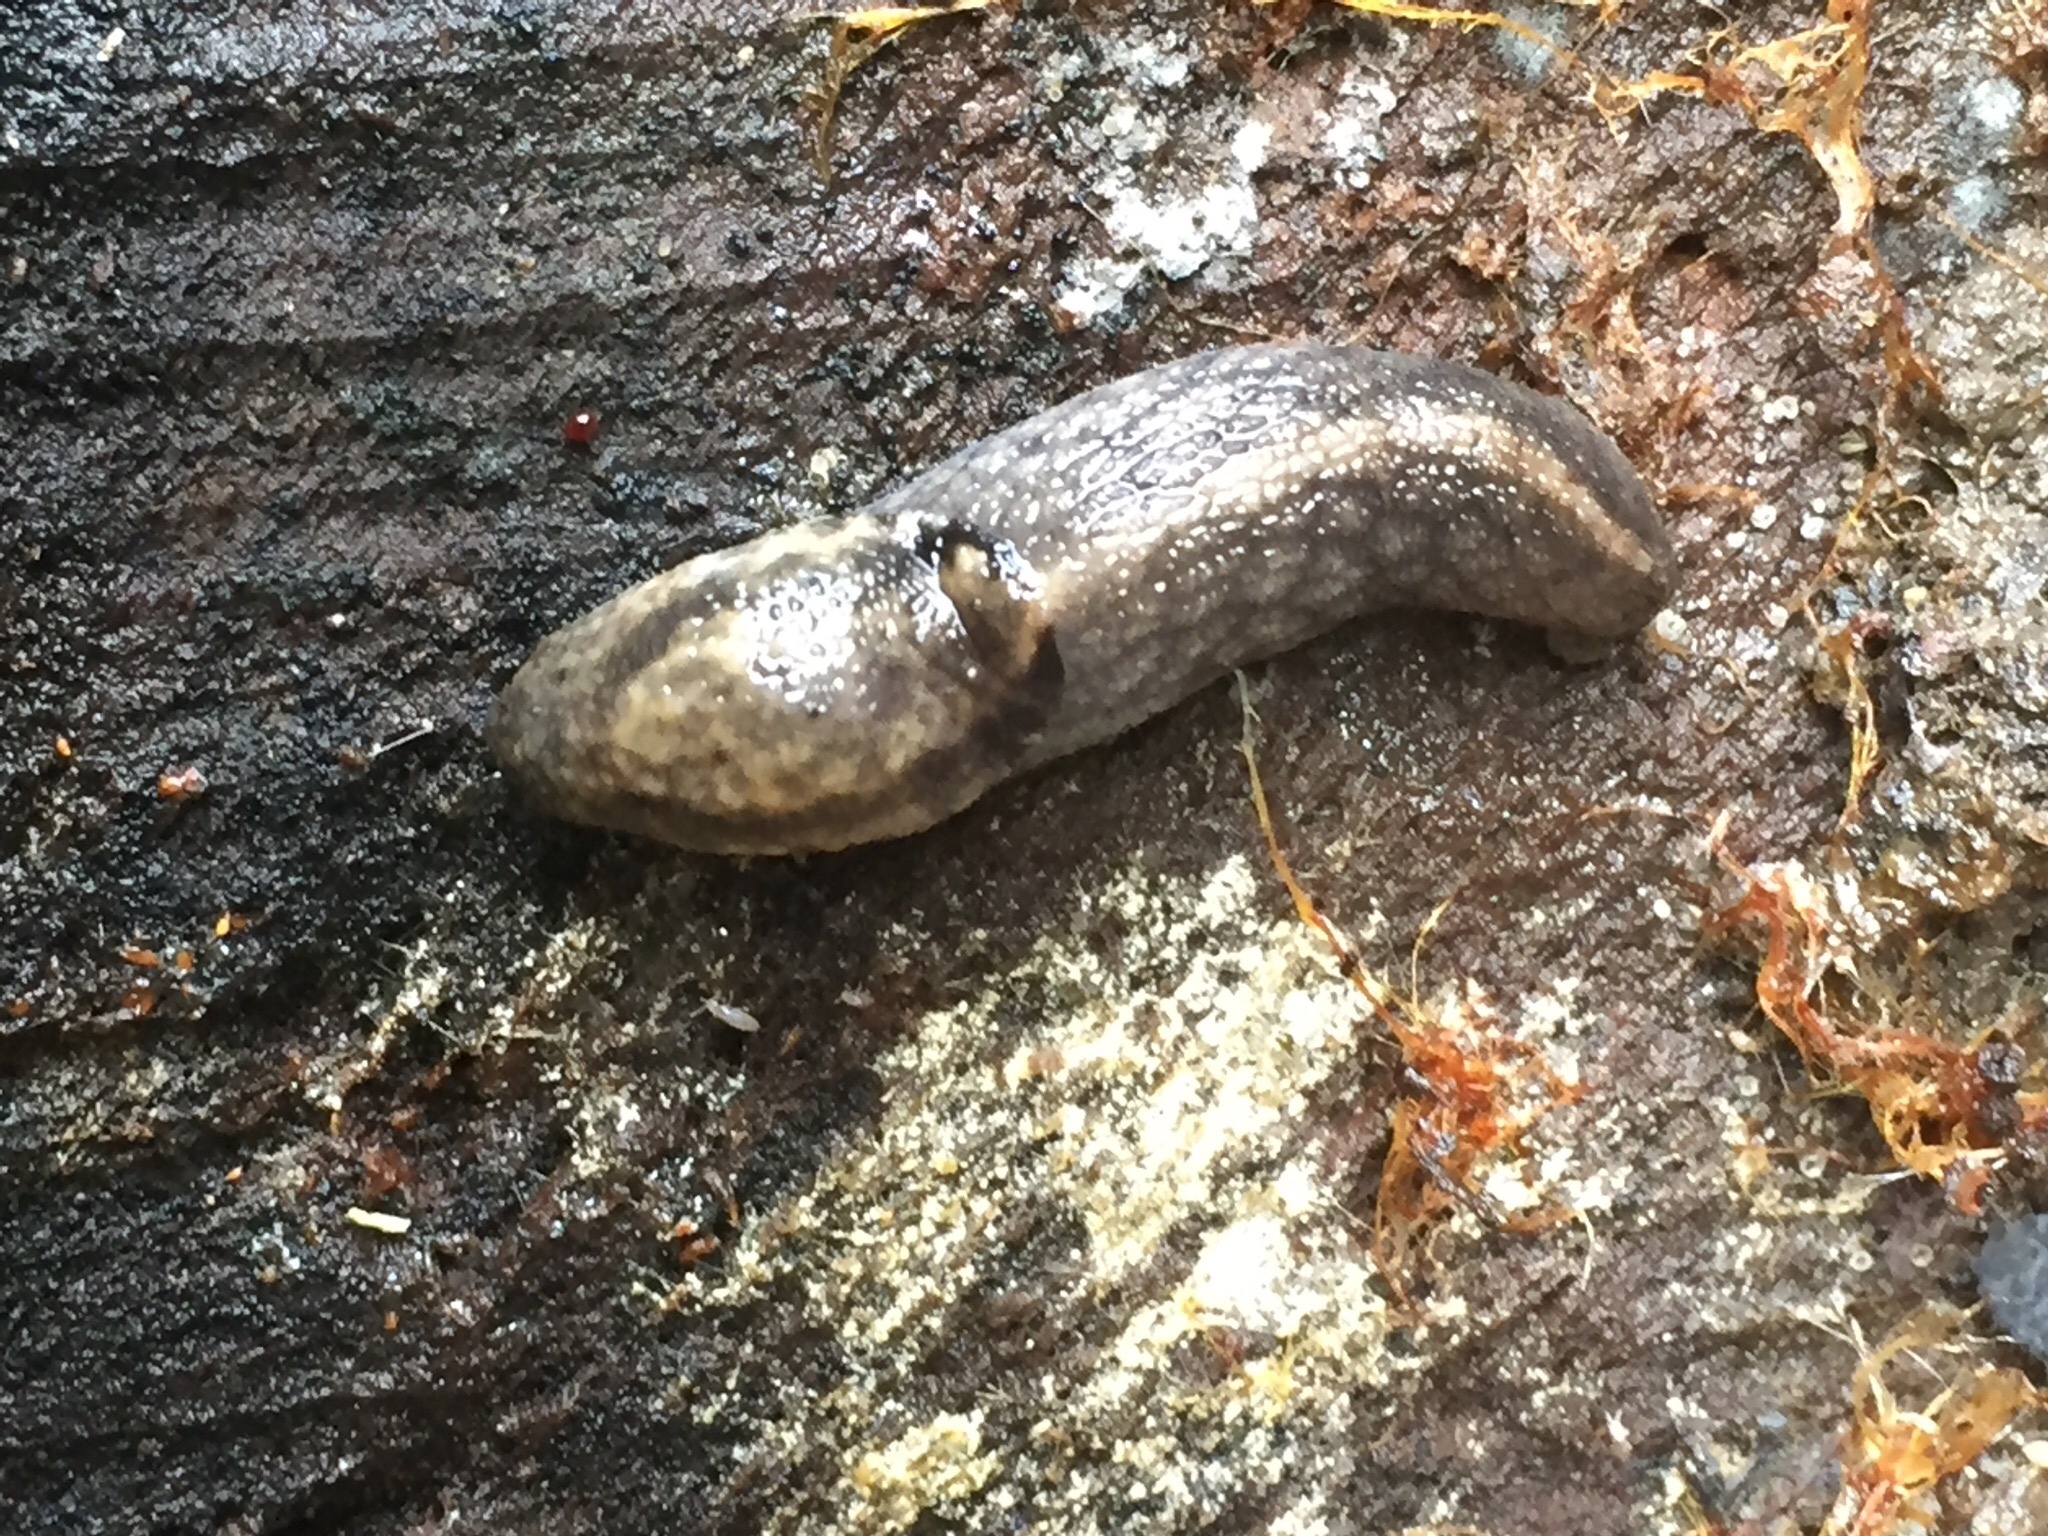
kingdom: Animalia
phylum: Mollusca
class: Gastropoda
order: Stylommatophora
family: Ariolimacidae
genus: Prophysaon
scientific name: Prophysaon andersonii
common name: Reticulate taildropper
